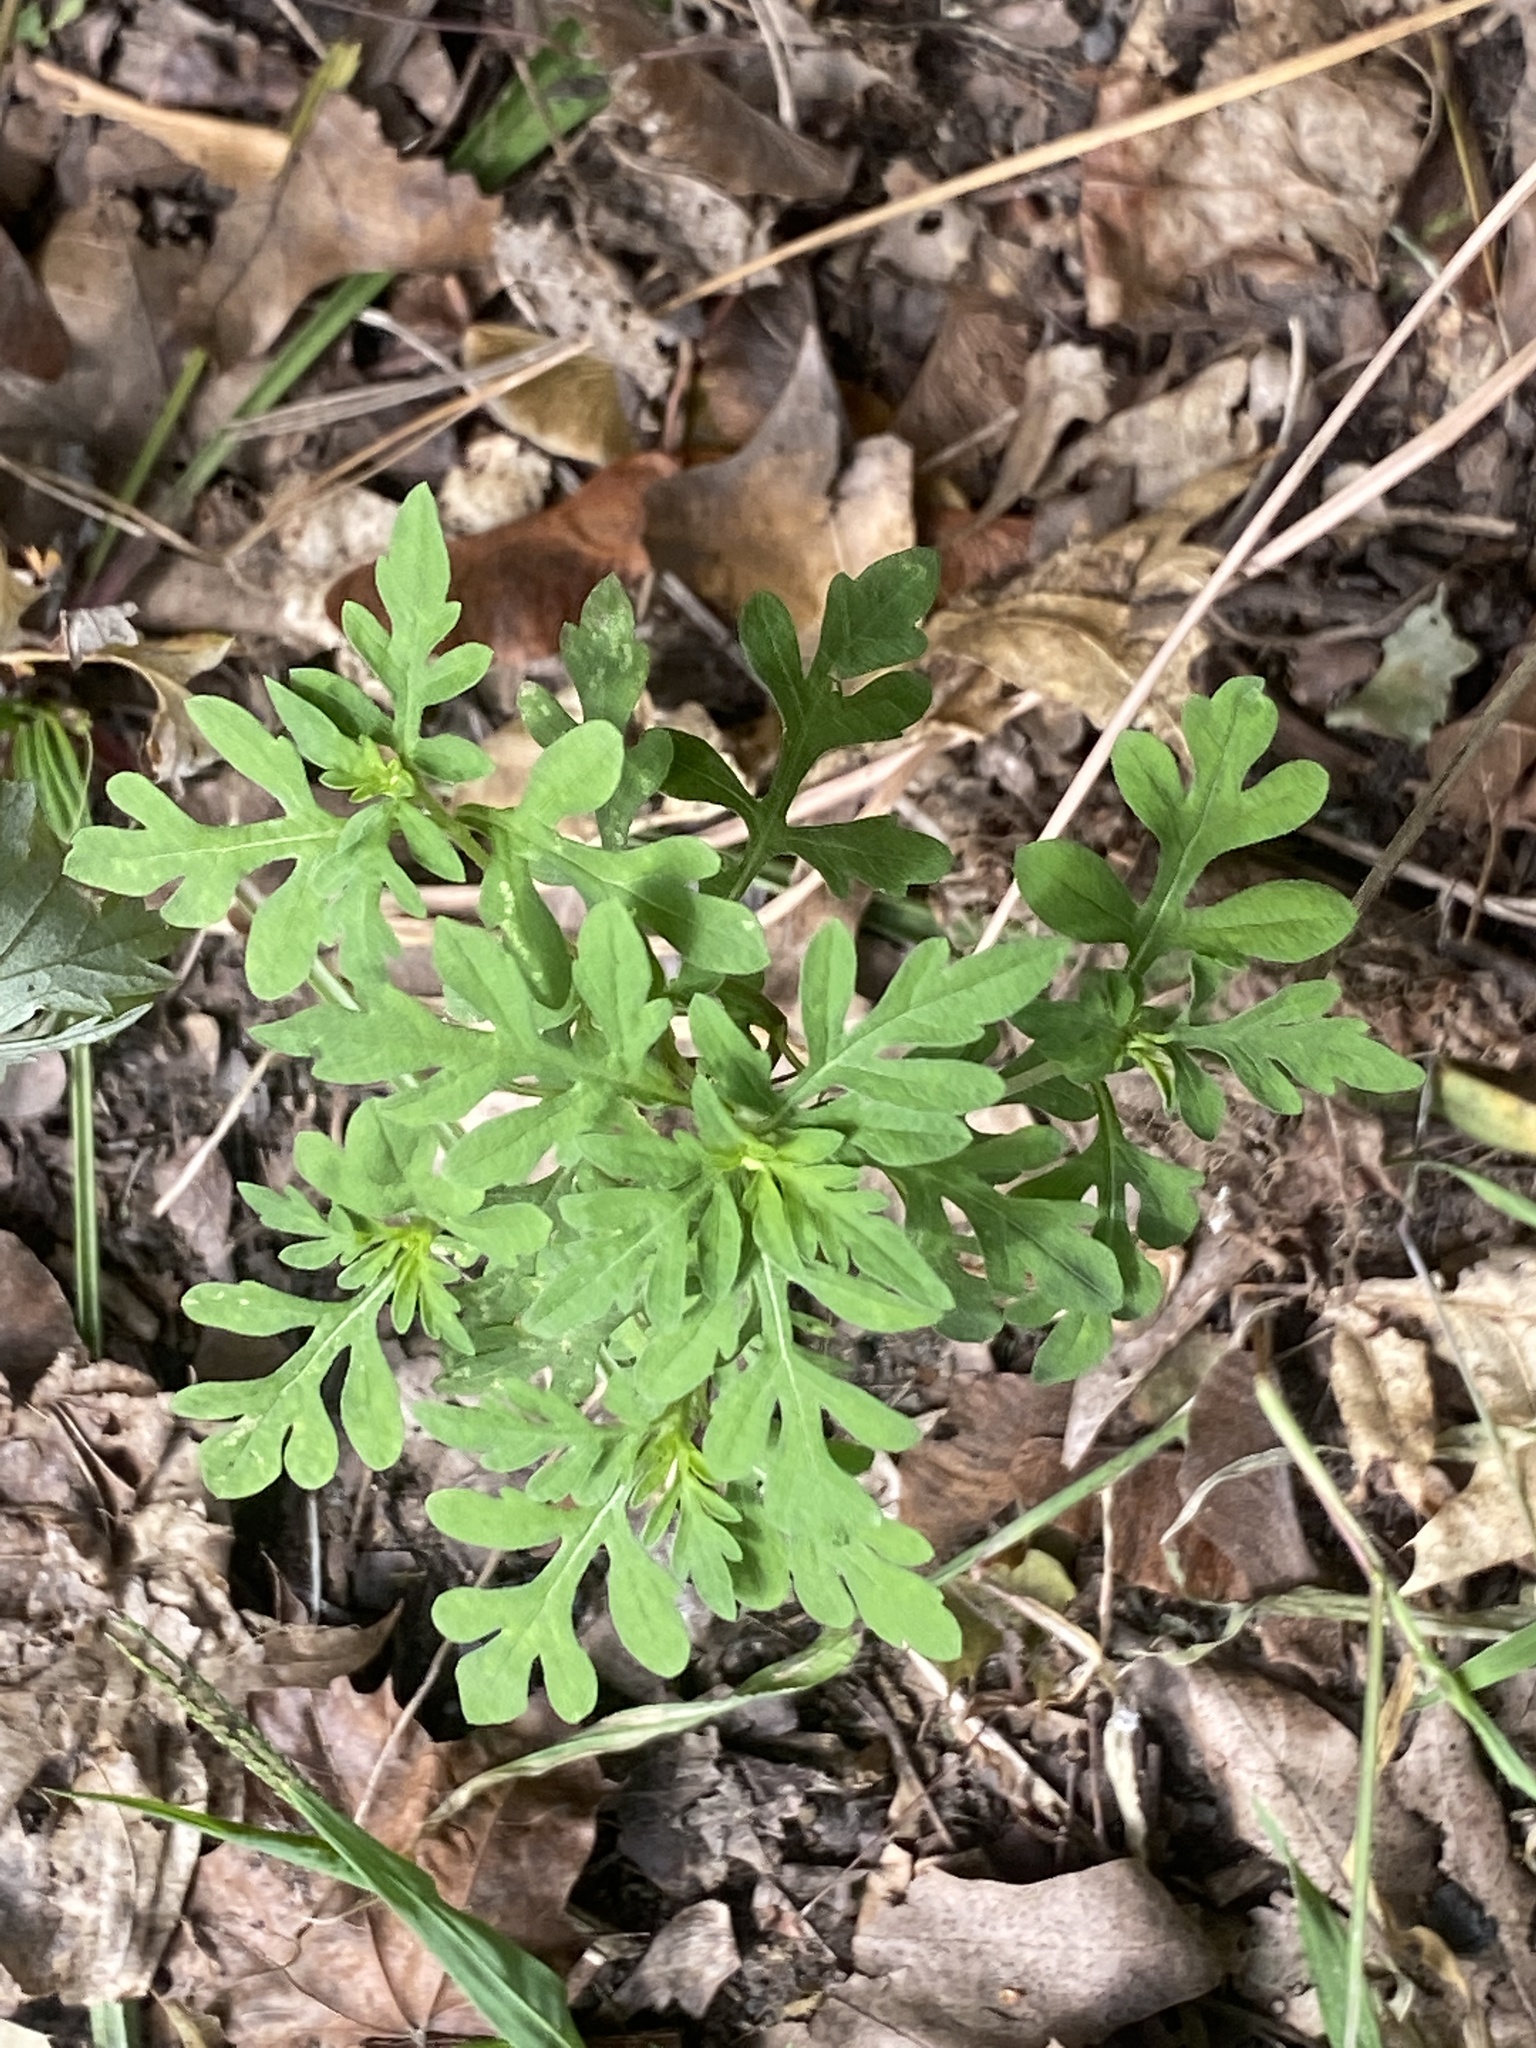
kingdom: Plantae
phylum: Tracheophyta
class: Magnoliopsida
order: Asterales
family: Asteraceae
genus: Ambrosia
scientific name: Ambrosia artemisiifolia
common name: Annual ragweed
